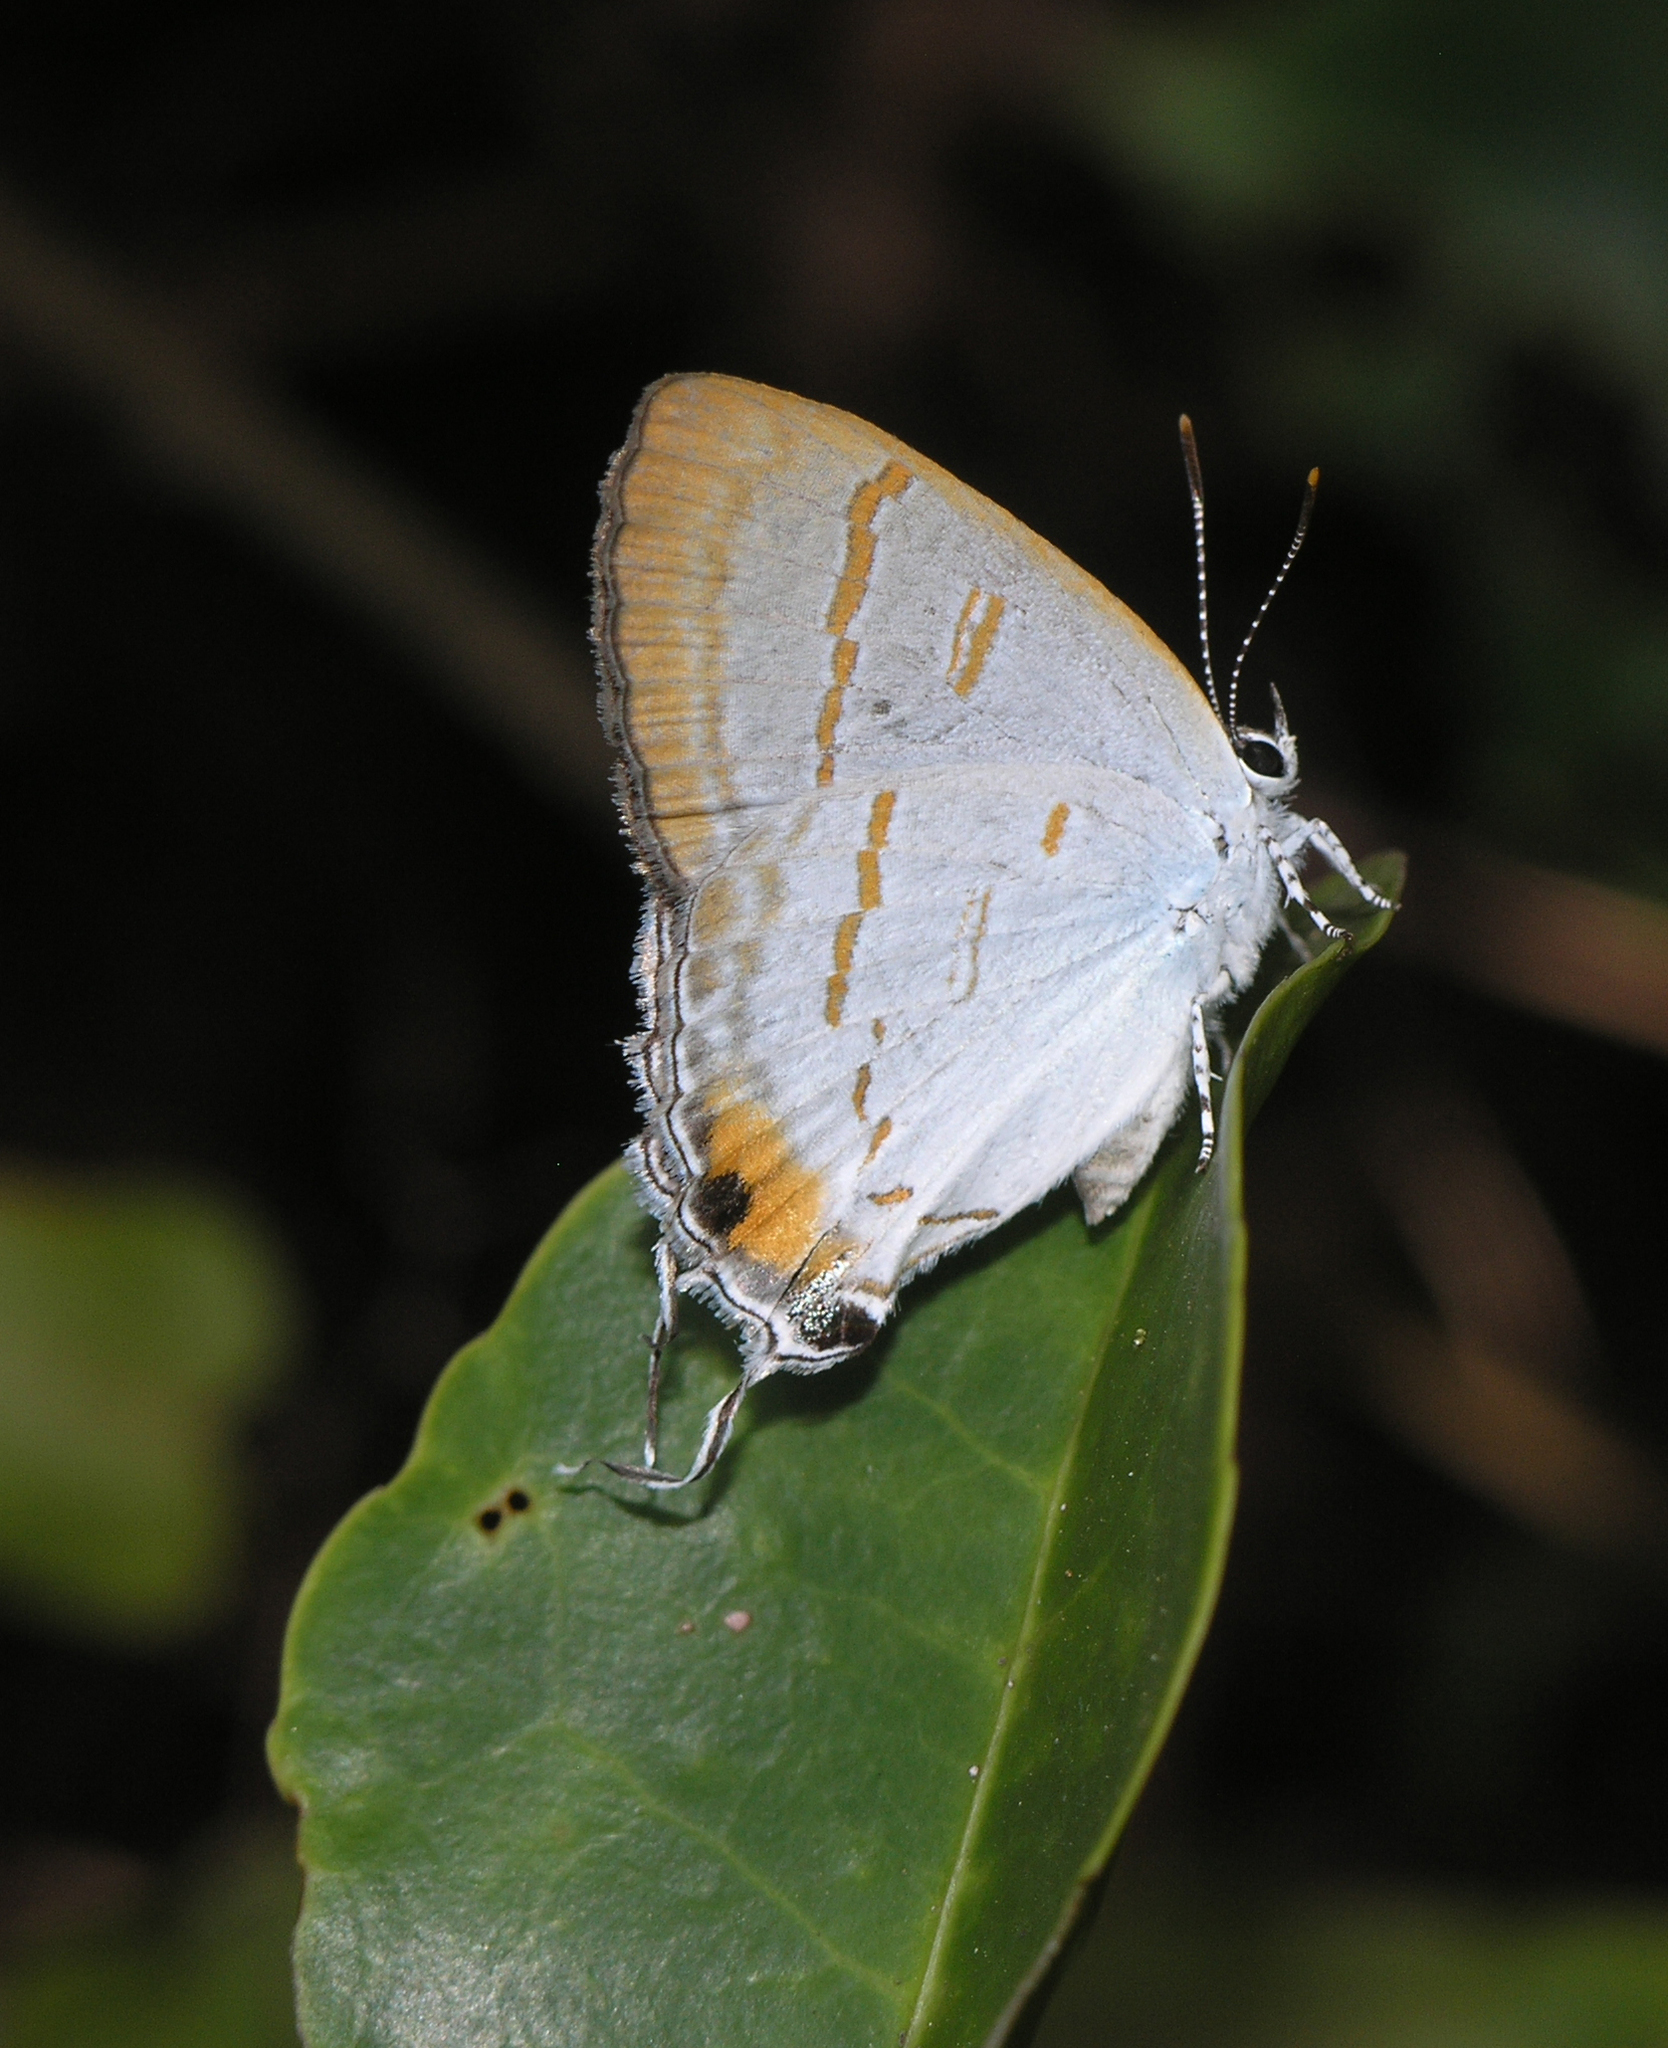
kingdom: Animalia
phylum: Arthropoda
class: Insecta
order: Lepidoptera
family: Lycaenidae
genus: Hypolycaena
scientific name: Hypolycaena thecloides
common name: Dark tit
